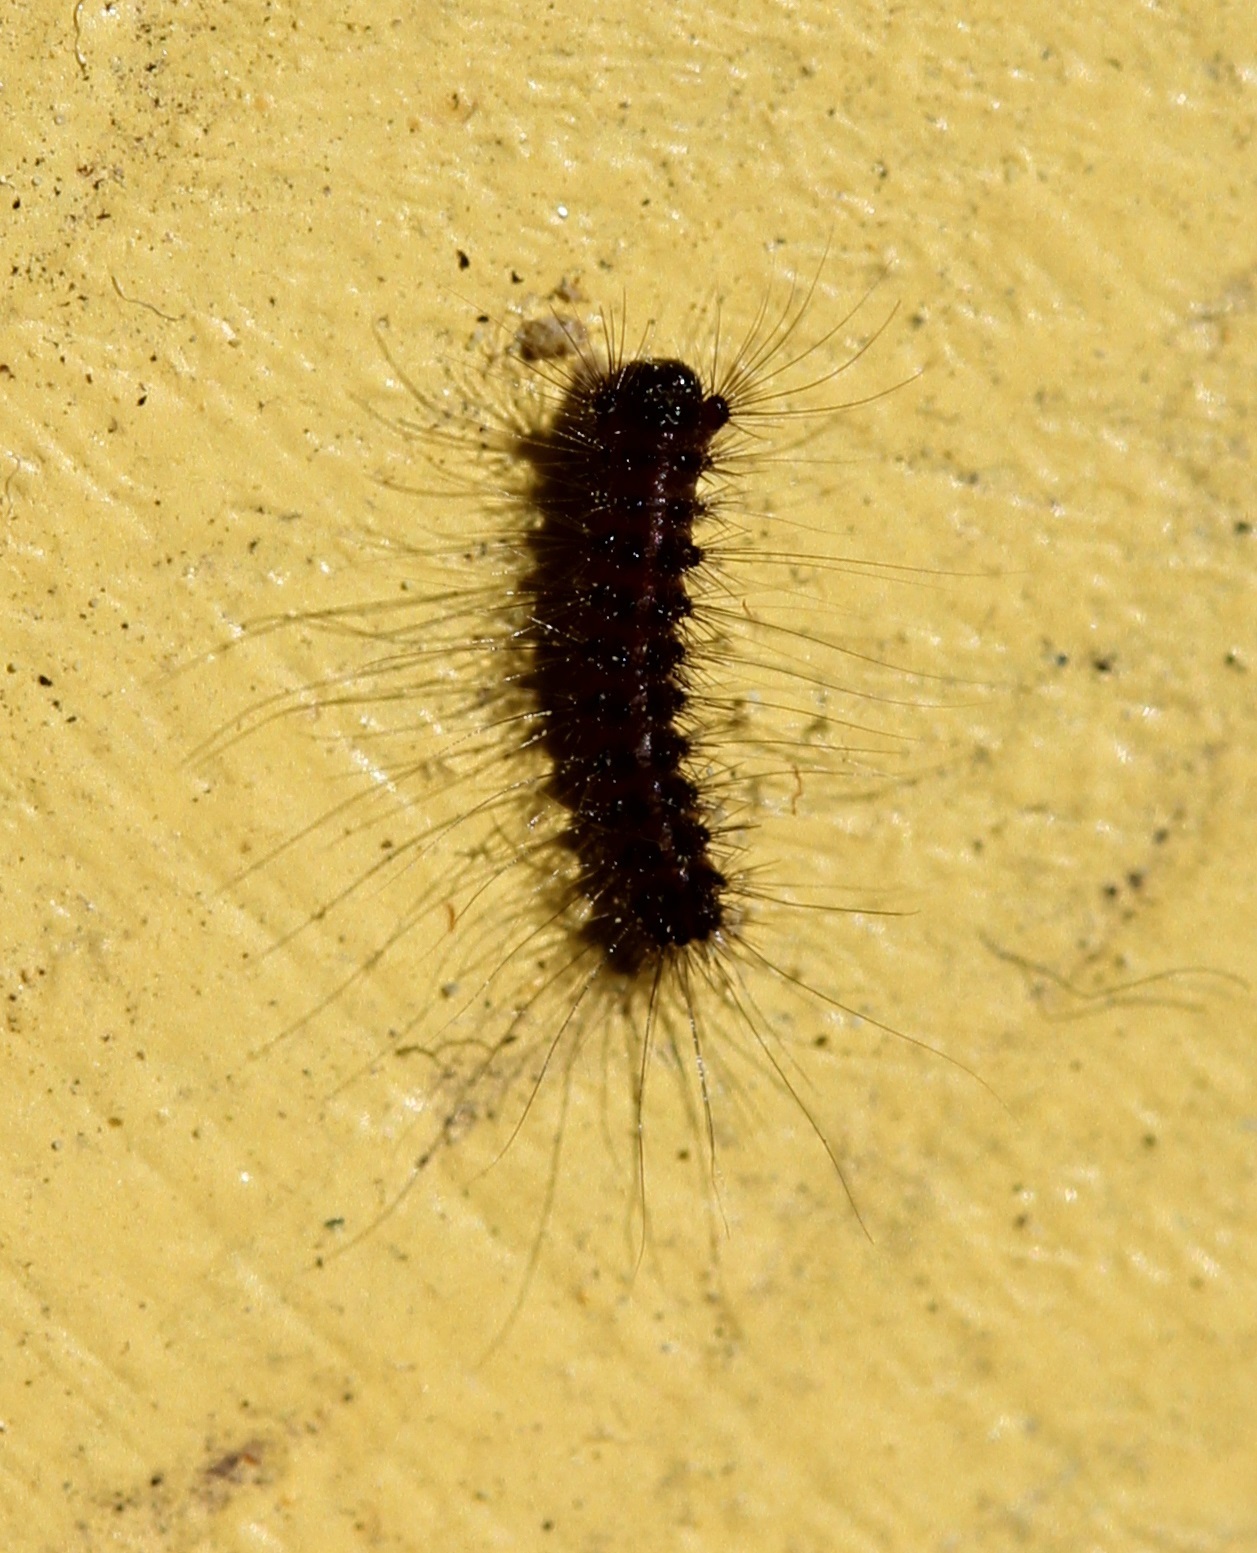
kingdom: Animalia
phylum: Arthropoda
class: Insecta
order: Lepidoptera
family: Erebidae
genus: Lymantria
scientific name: Lymantria dispar
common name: Gypsy moth
